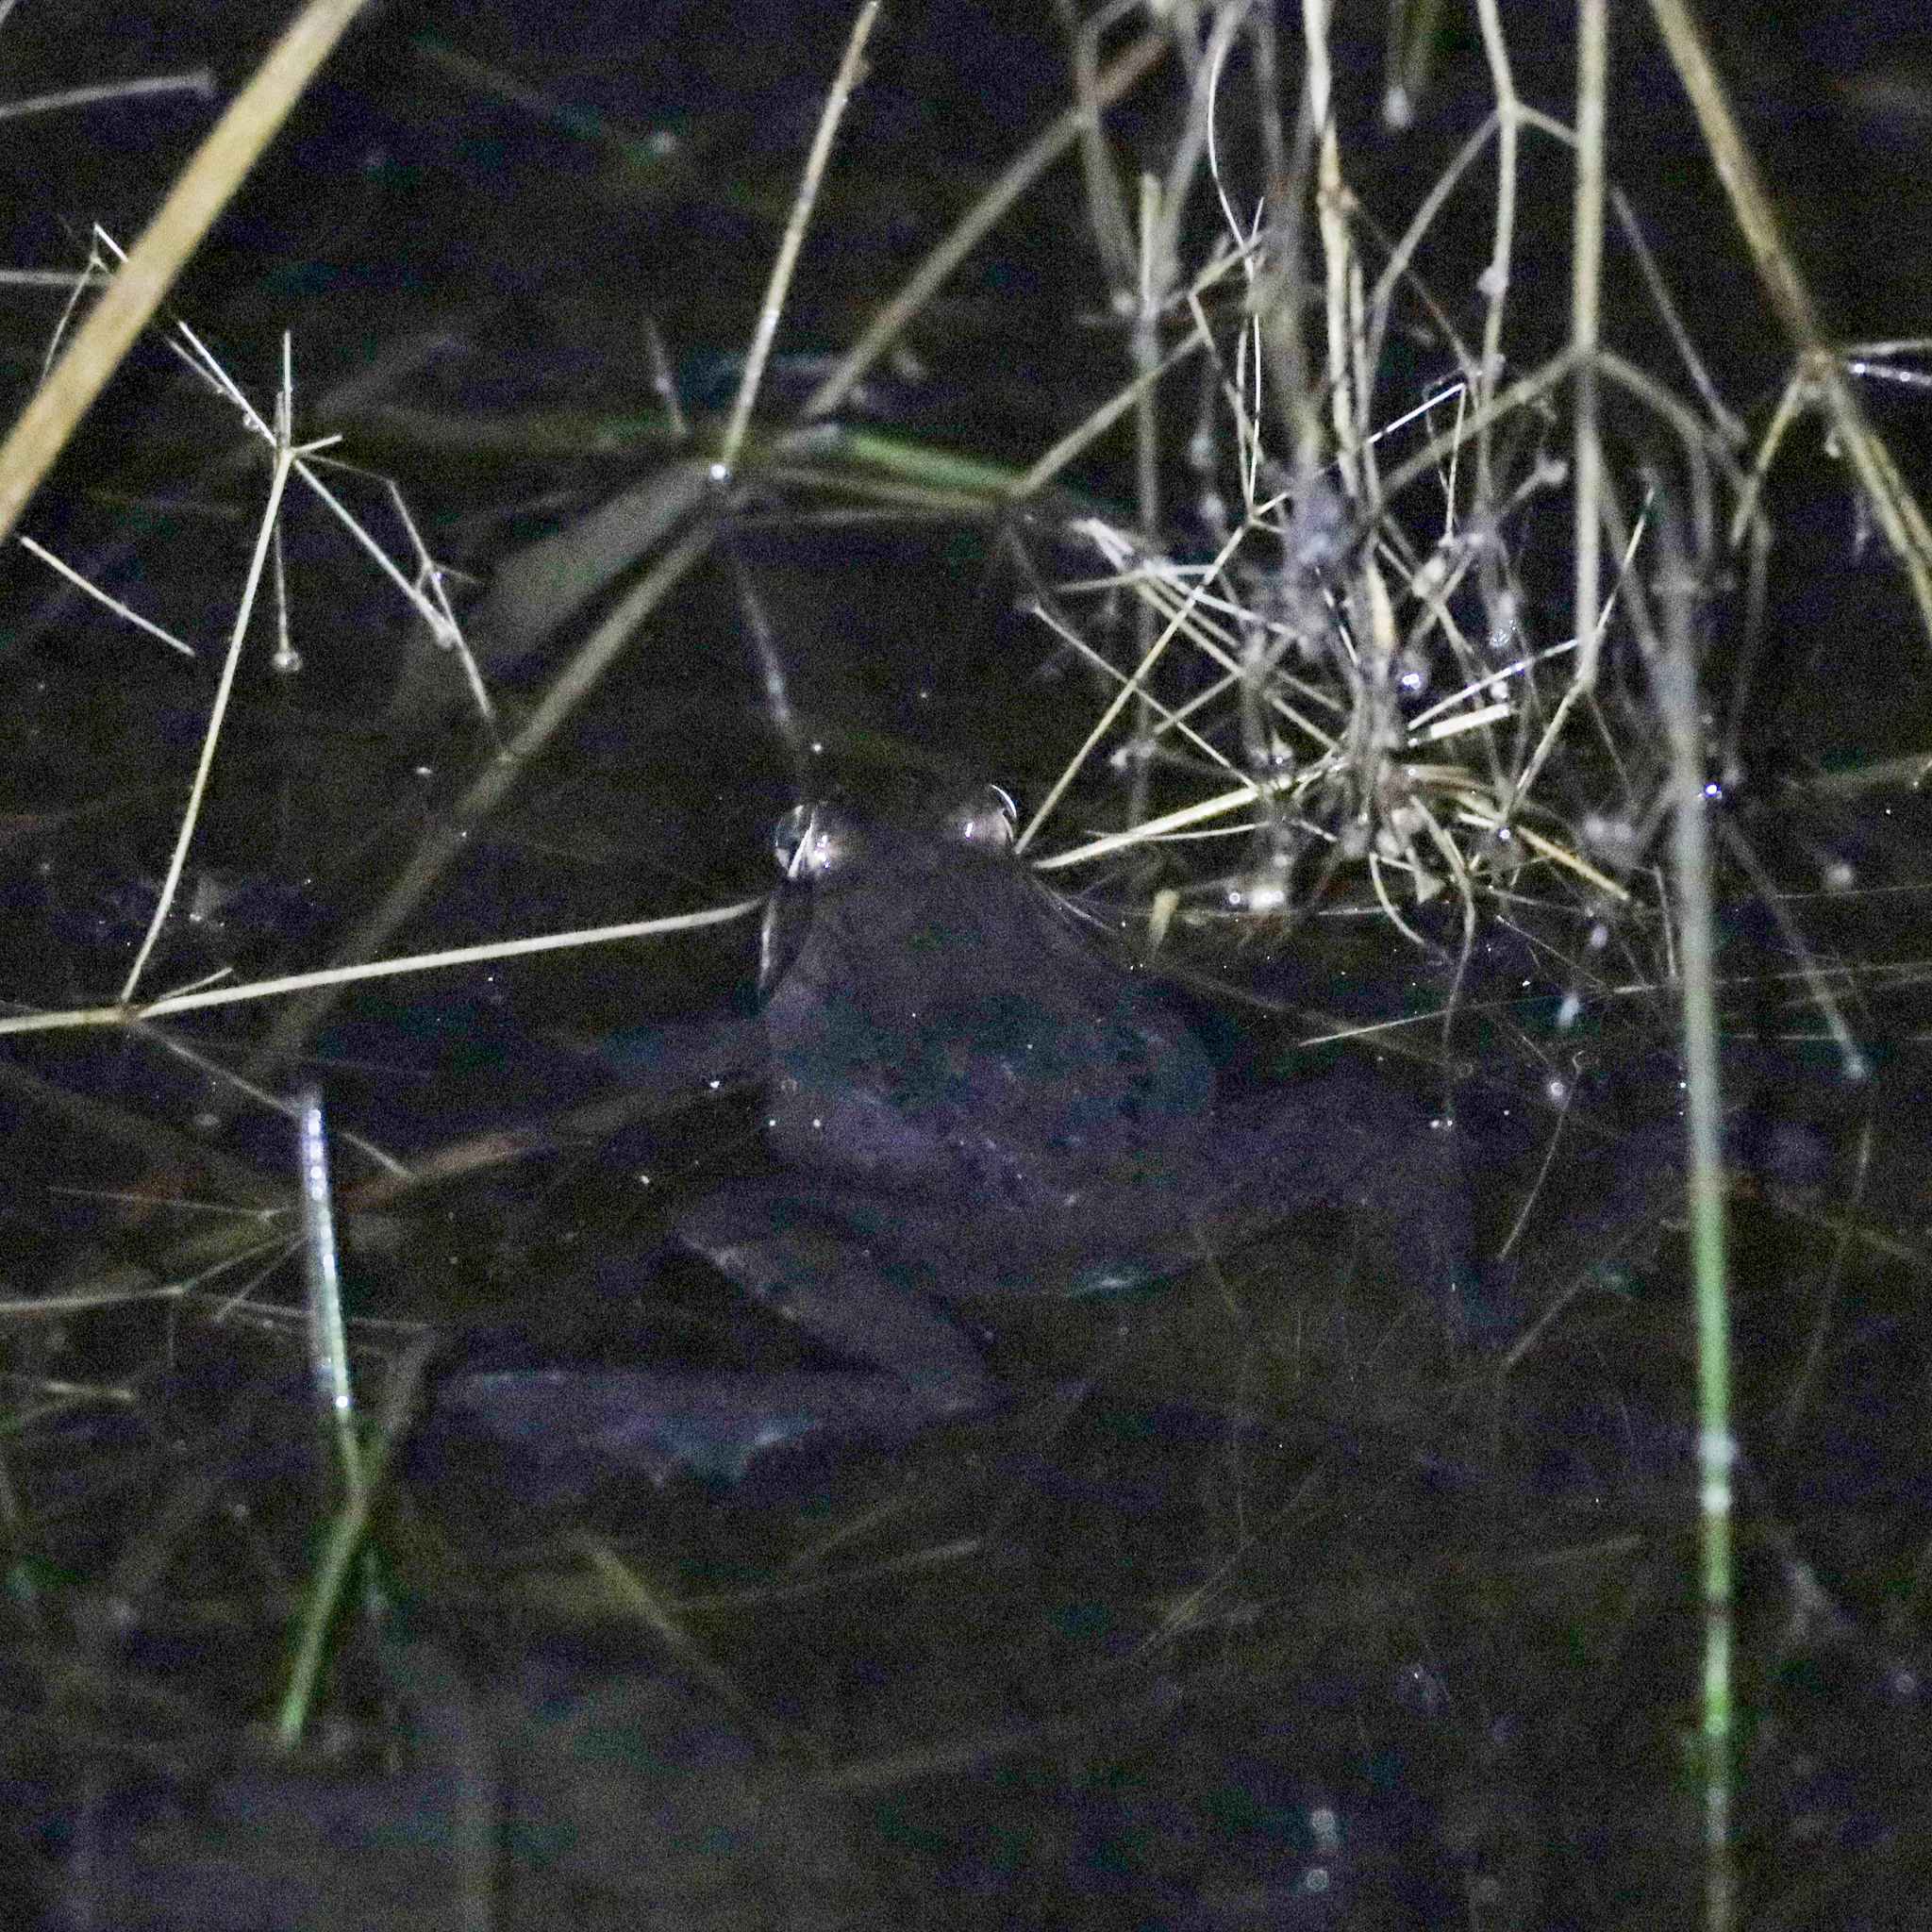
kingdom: Animalia
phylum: Chordata
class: Amphibia
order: Anura
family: Ranidae
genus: Lithobates
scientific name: Lithobates sylvaticus
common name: Wood frog
